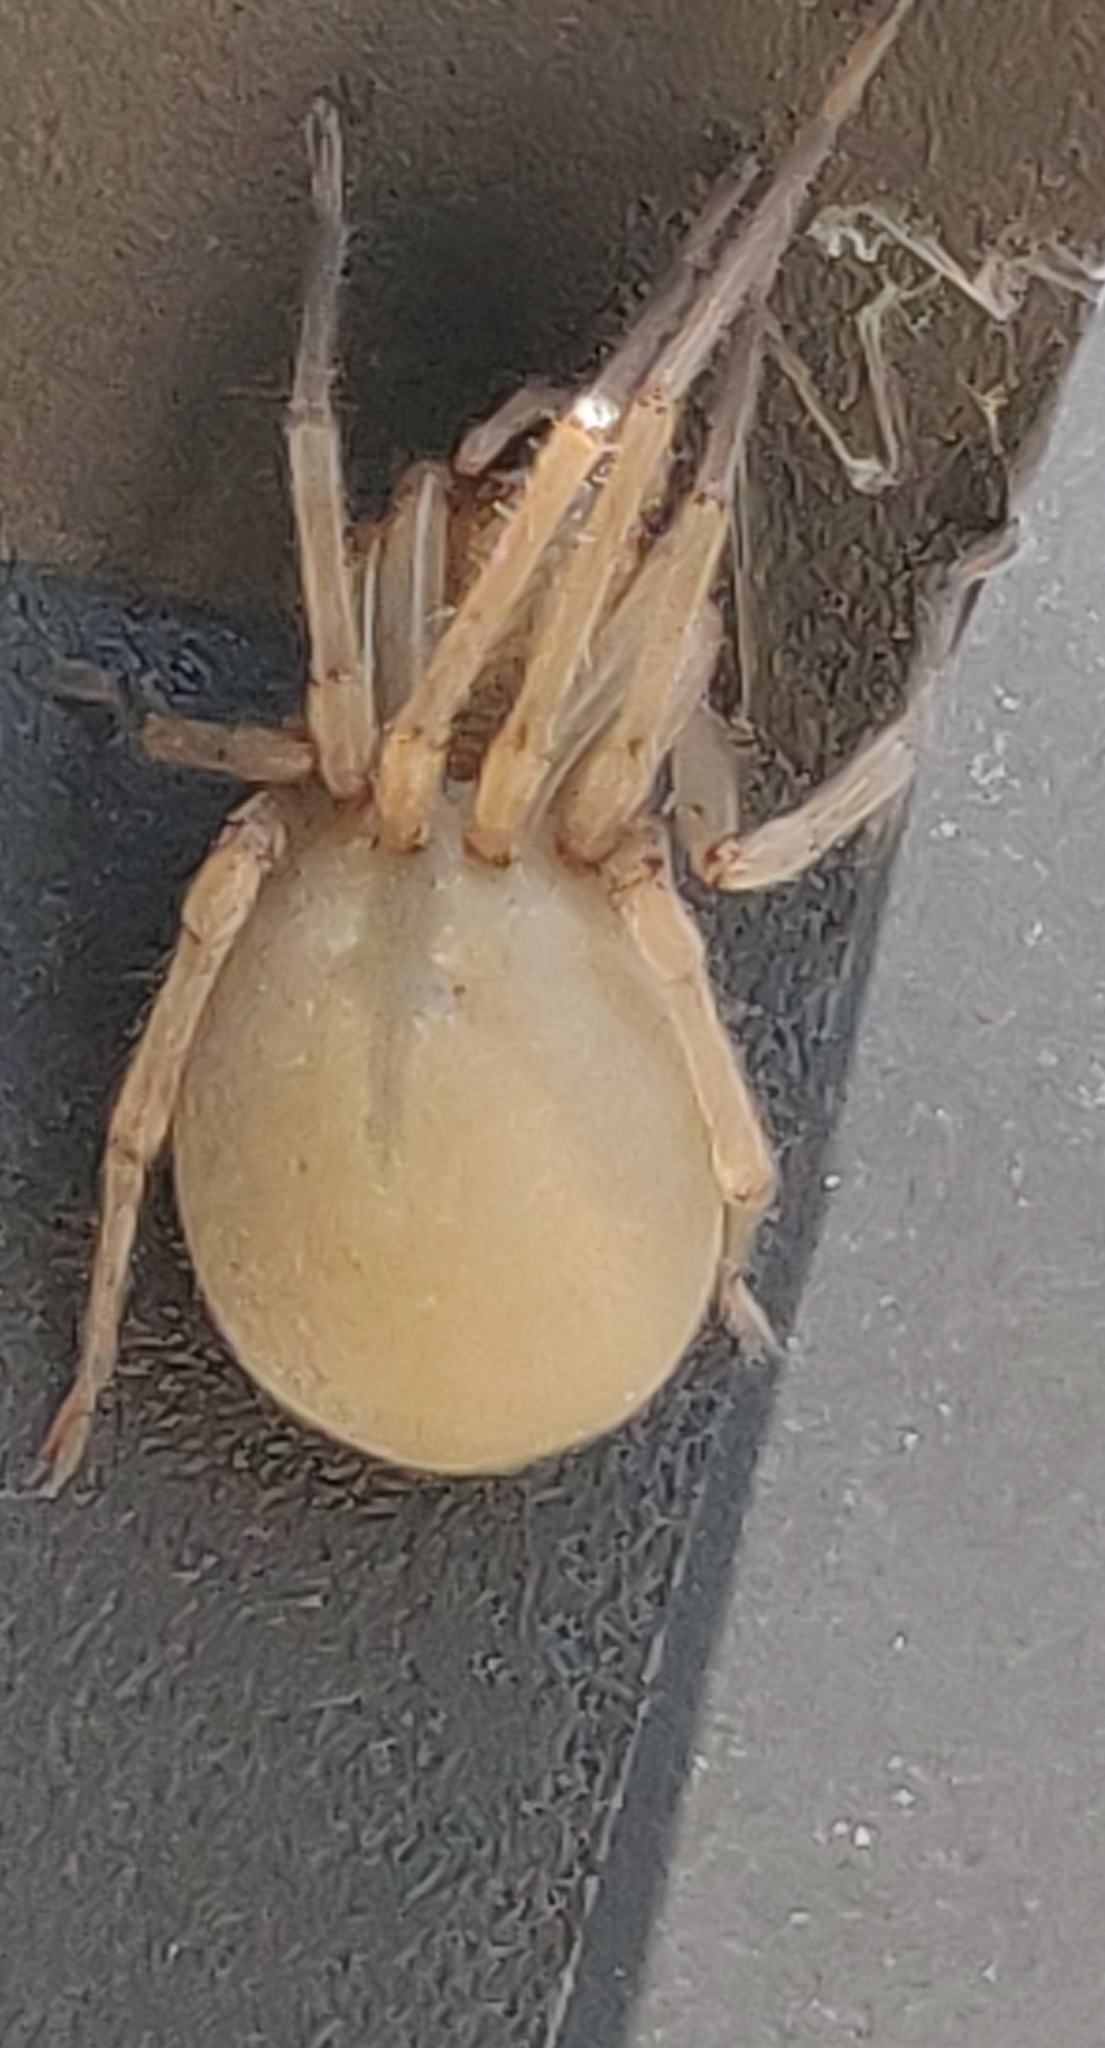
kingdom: Animalia
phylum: Arthropoda
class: Arachnida
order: Araneae
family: Cheiracanthiidae
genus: Cheiracanthium
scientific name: Cheiracanthium mildei
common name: Northern yellow sac spider
